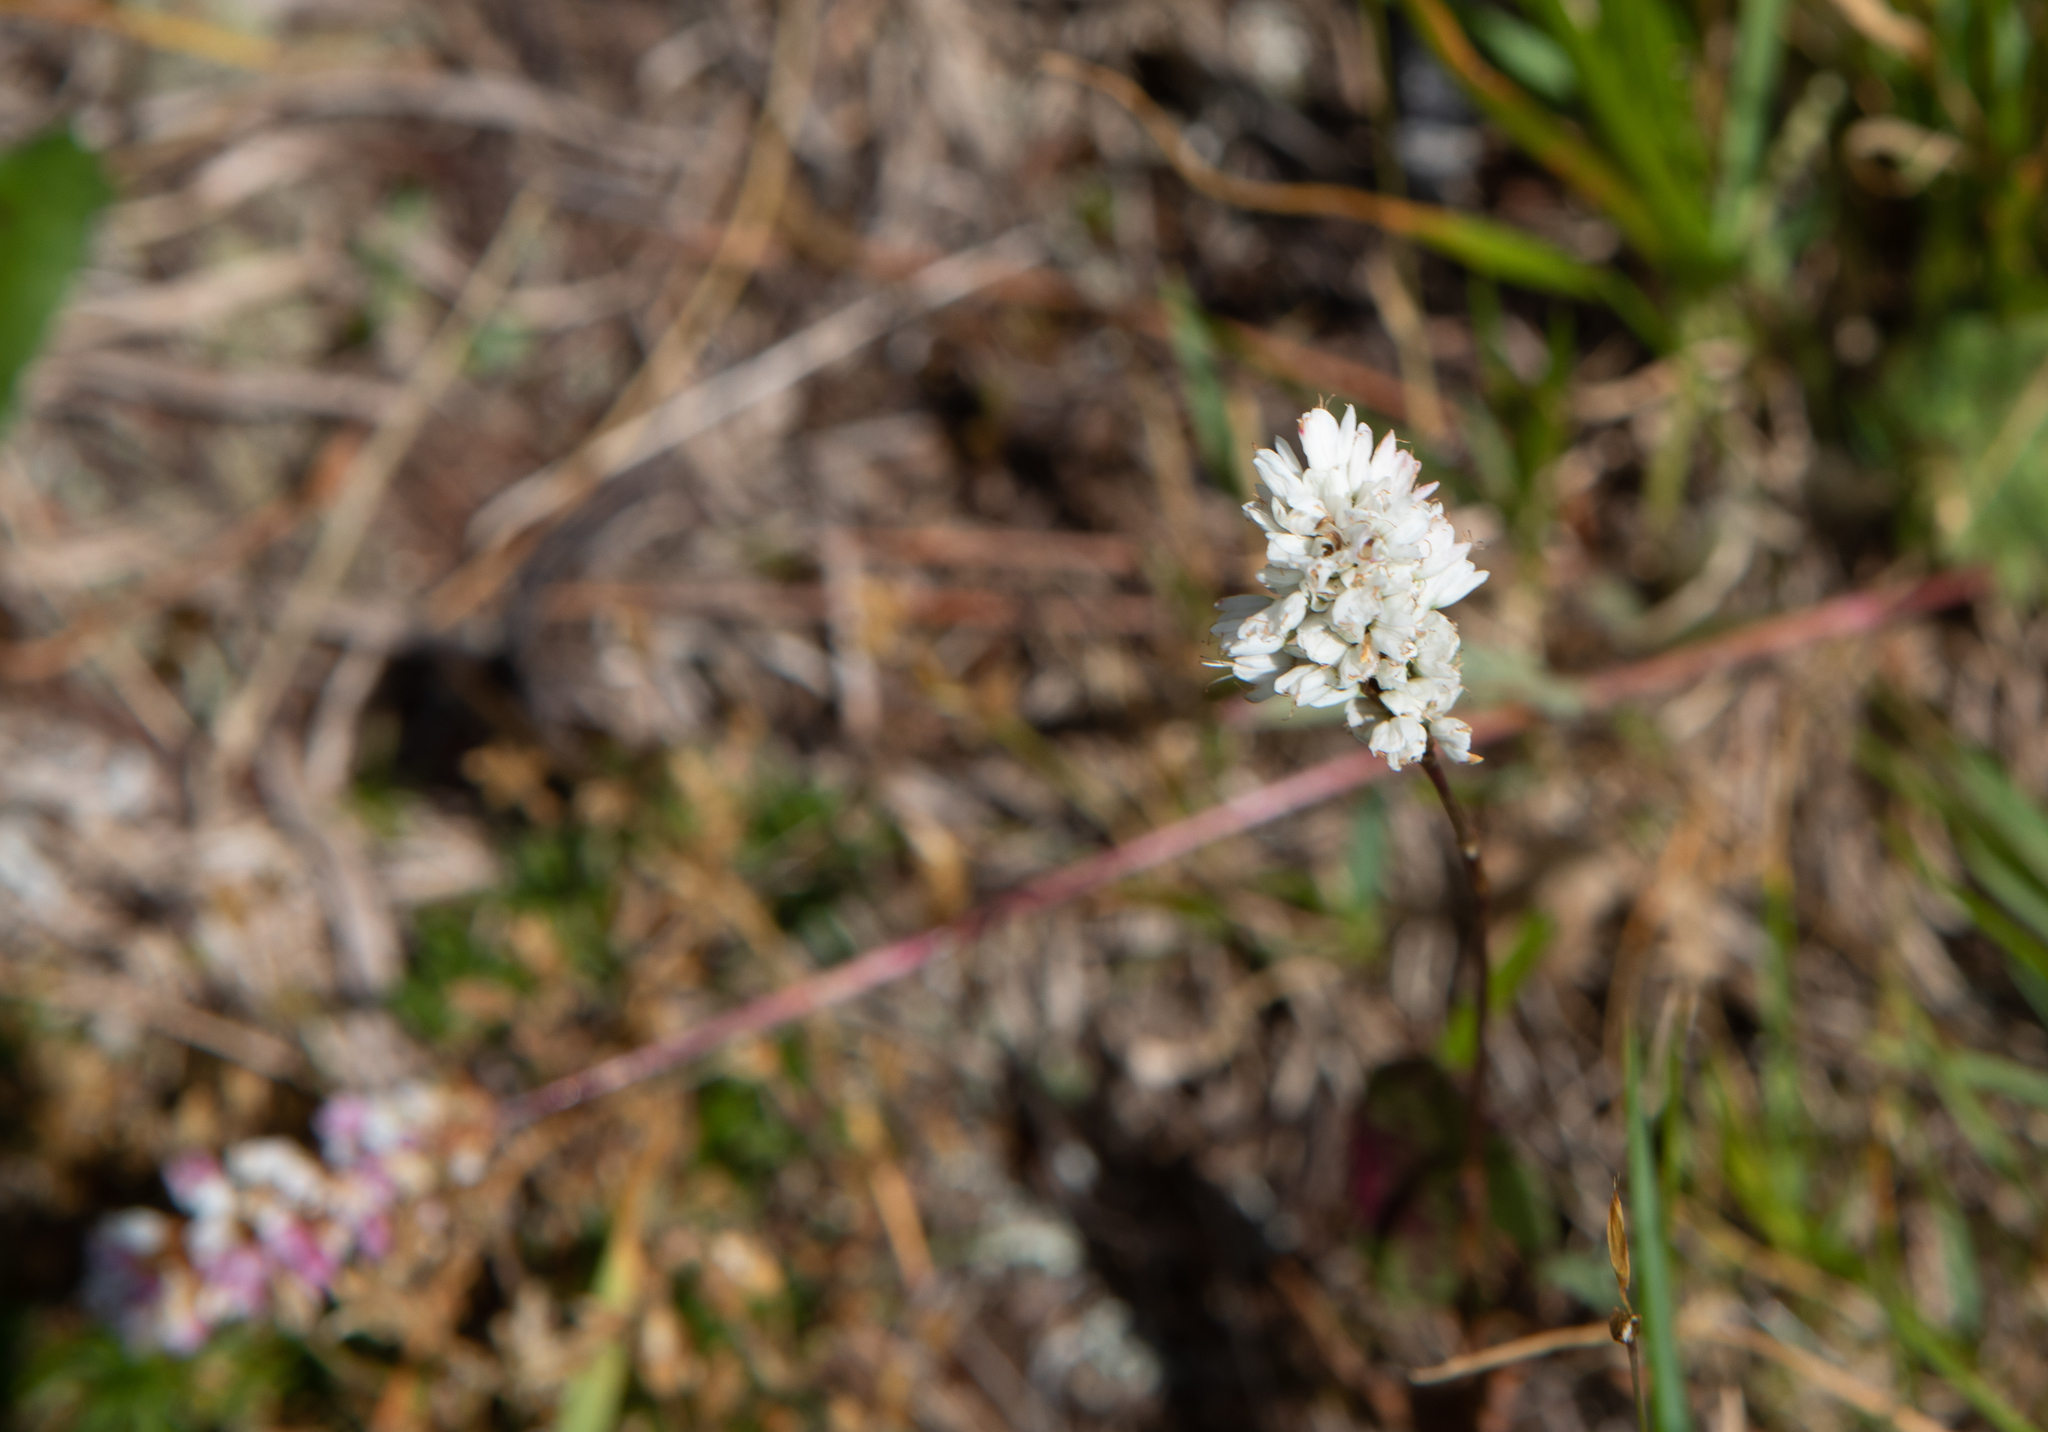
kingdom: Plantae
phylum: Tracheophyta
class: Magnoliopsida
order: Caryophyllales
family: Polygonaceae
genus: Bistorta
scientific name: Bistorta vivipara
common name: Alpine bistort
